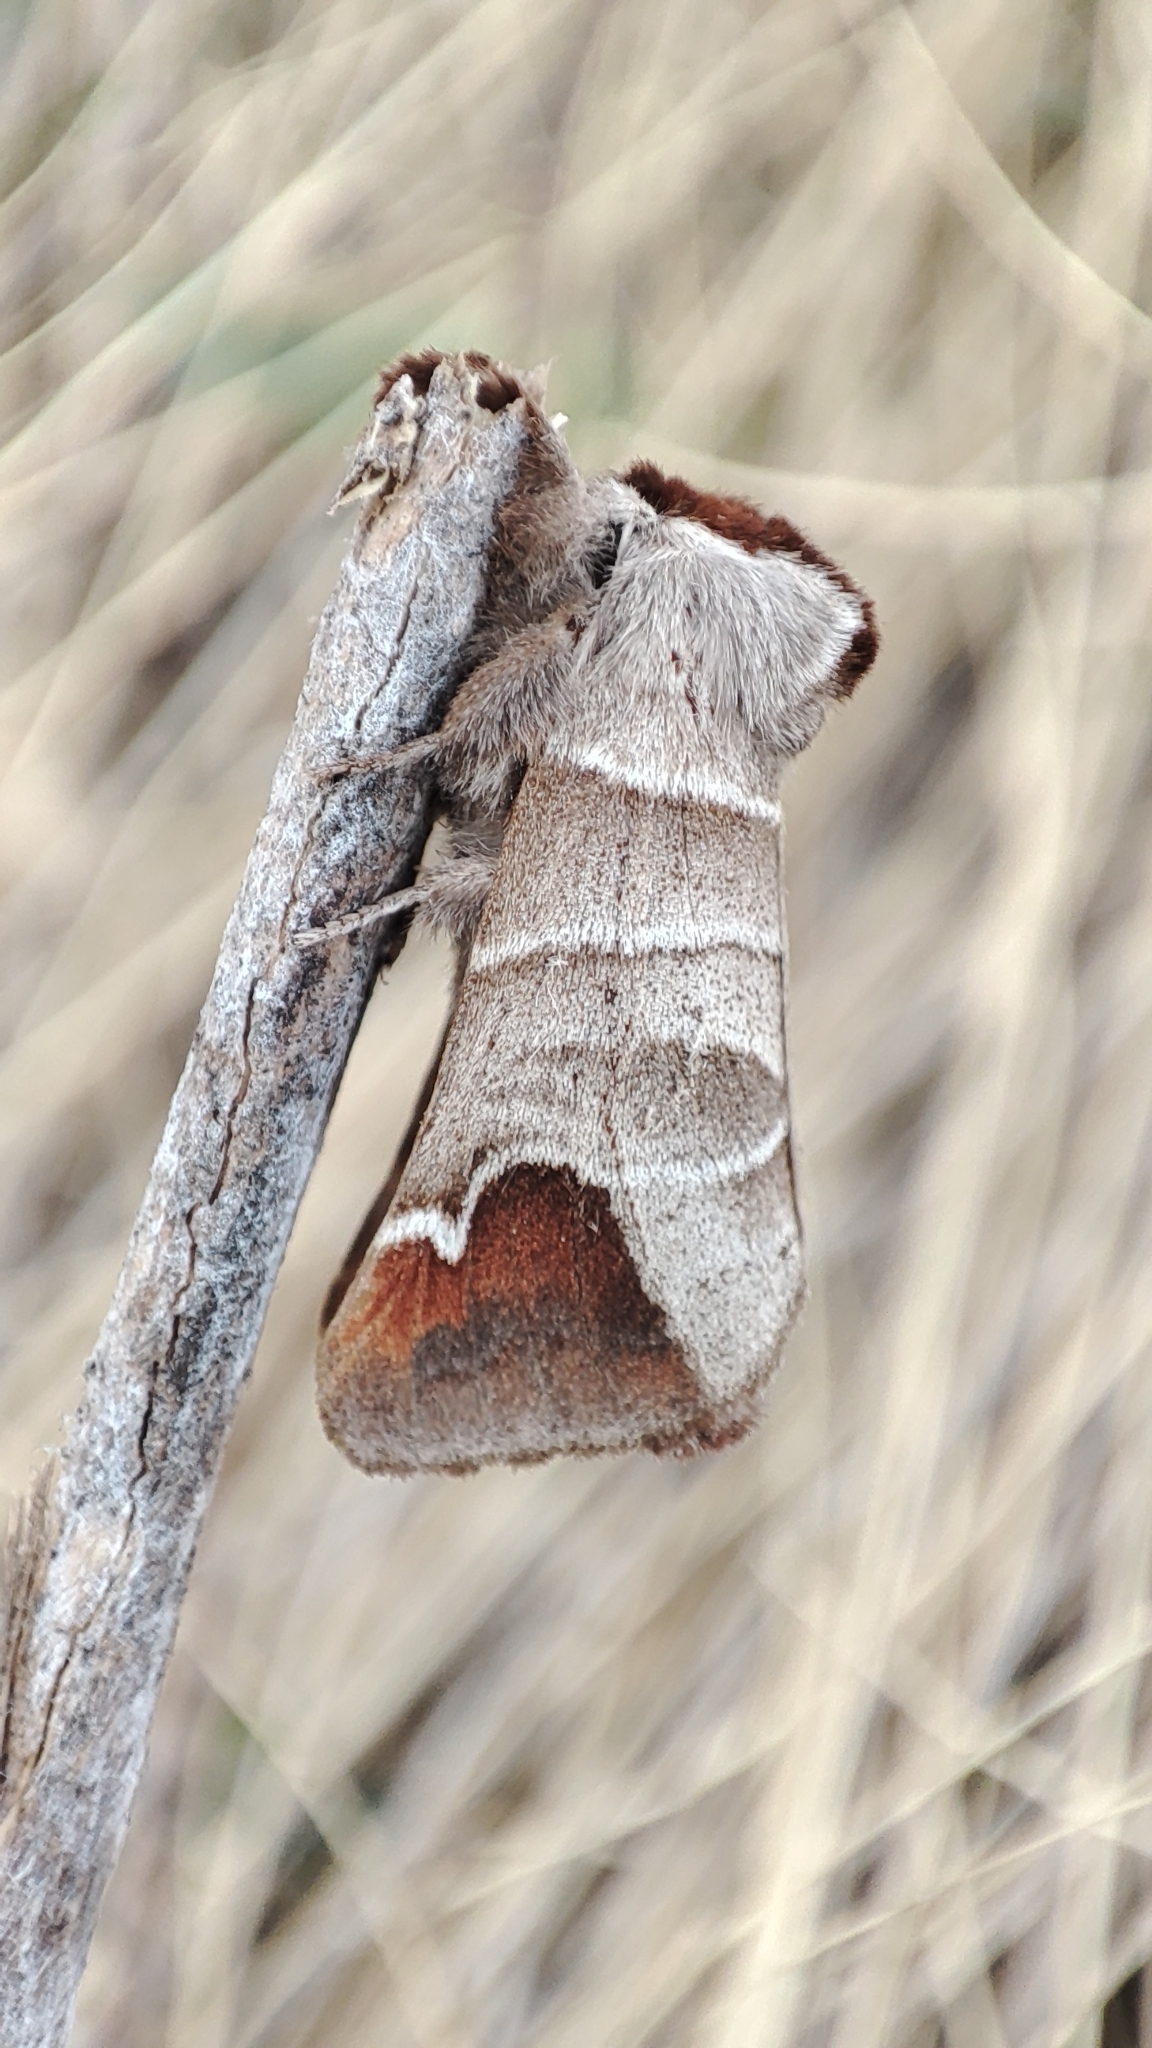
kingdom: Animalia
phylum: Arthropoda
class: Insecta
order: Lepidoptera
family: Notodontidae
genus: Clostera
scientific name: Clostera albosigma
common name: Sigmoid prominent
